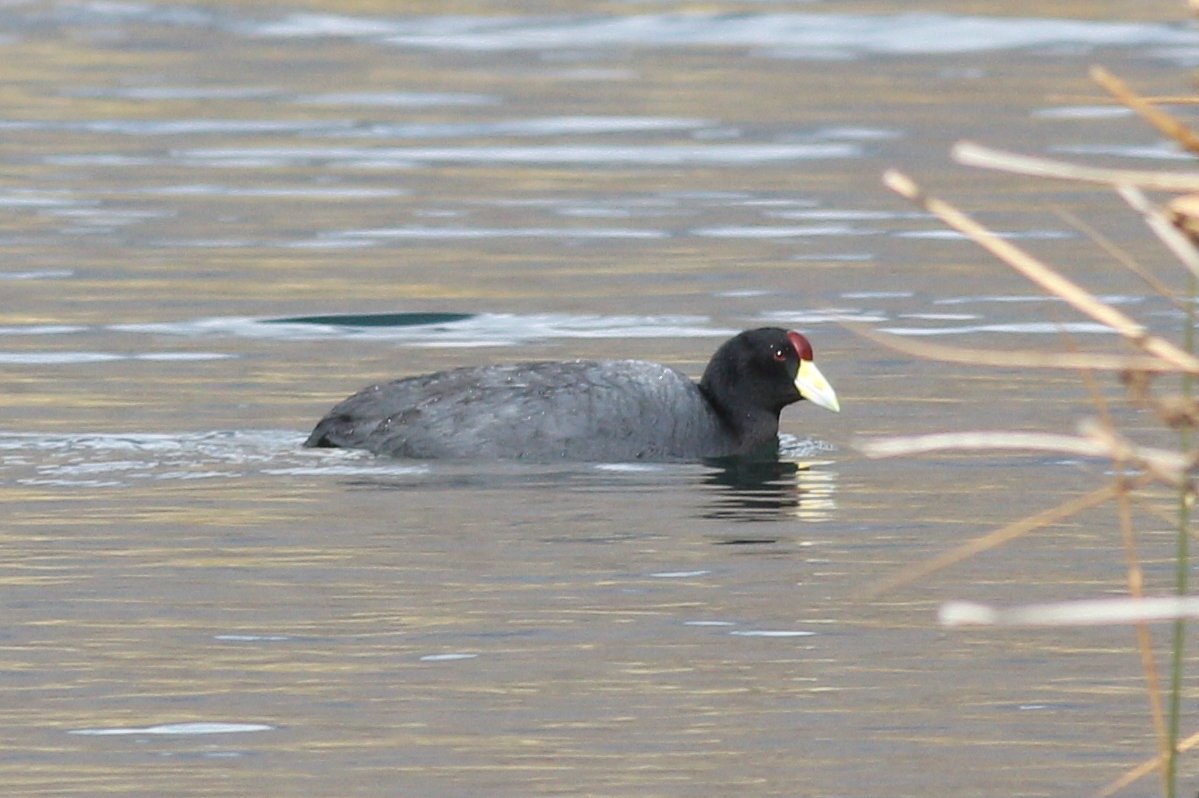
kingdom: Animalia
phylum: Chordata
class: Aves
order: Gruiformes
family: Rallidae
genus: Fulica
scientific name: Fulica ardesiaca
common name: Andean coot
